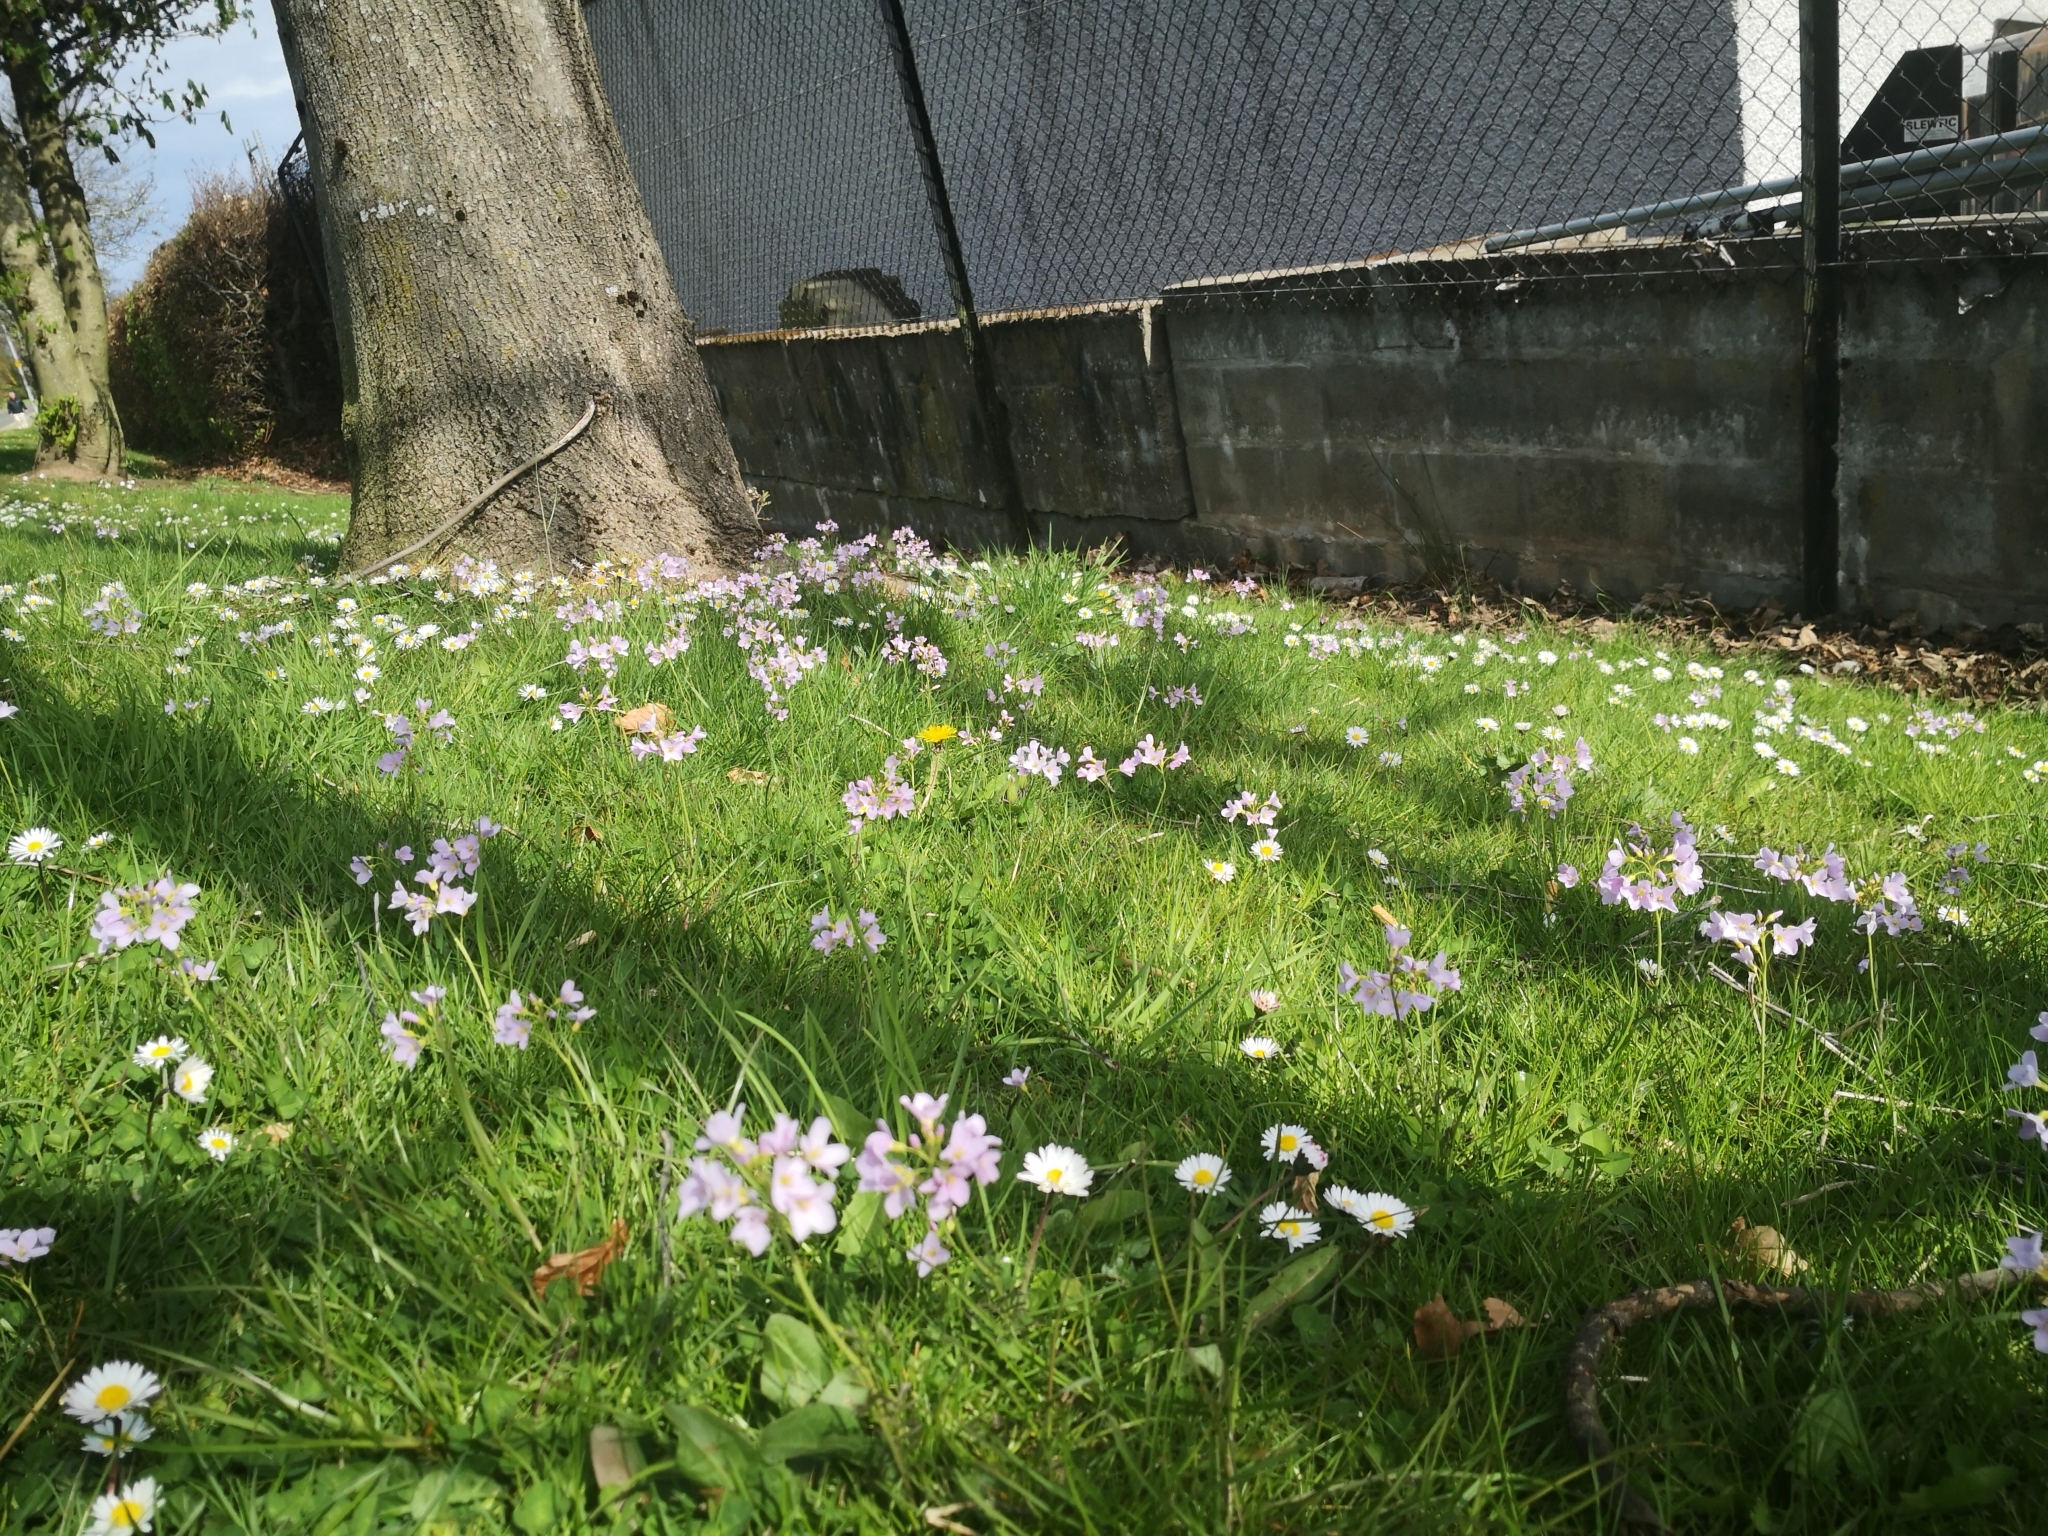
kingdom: Plantae
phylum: Tracheophyta
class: Magnoliopsida
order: Brassicales
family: Brassicaceae
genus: Cardamine
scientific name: Cardamine pratensis
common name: Cuckoo flower
